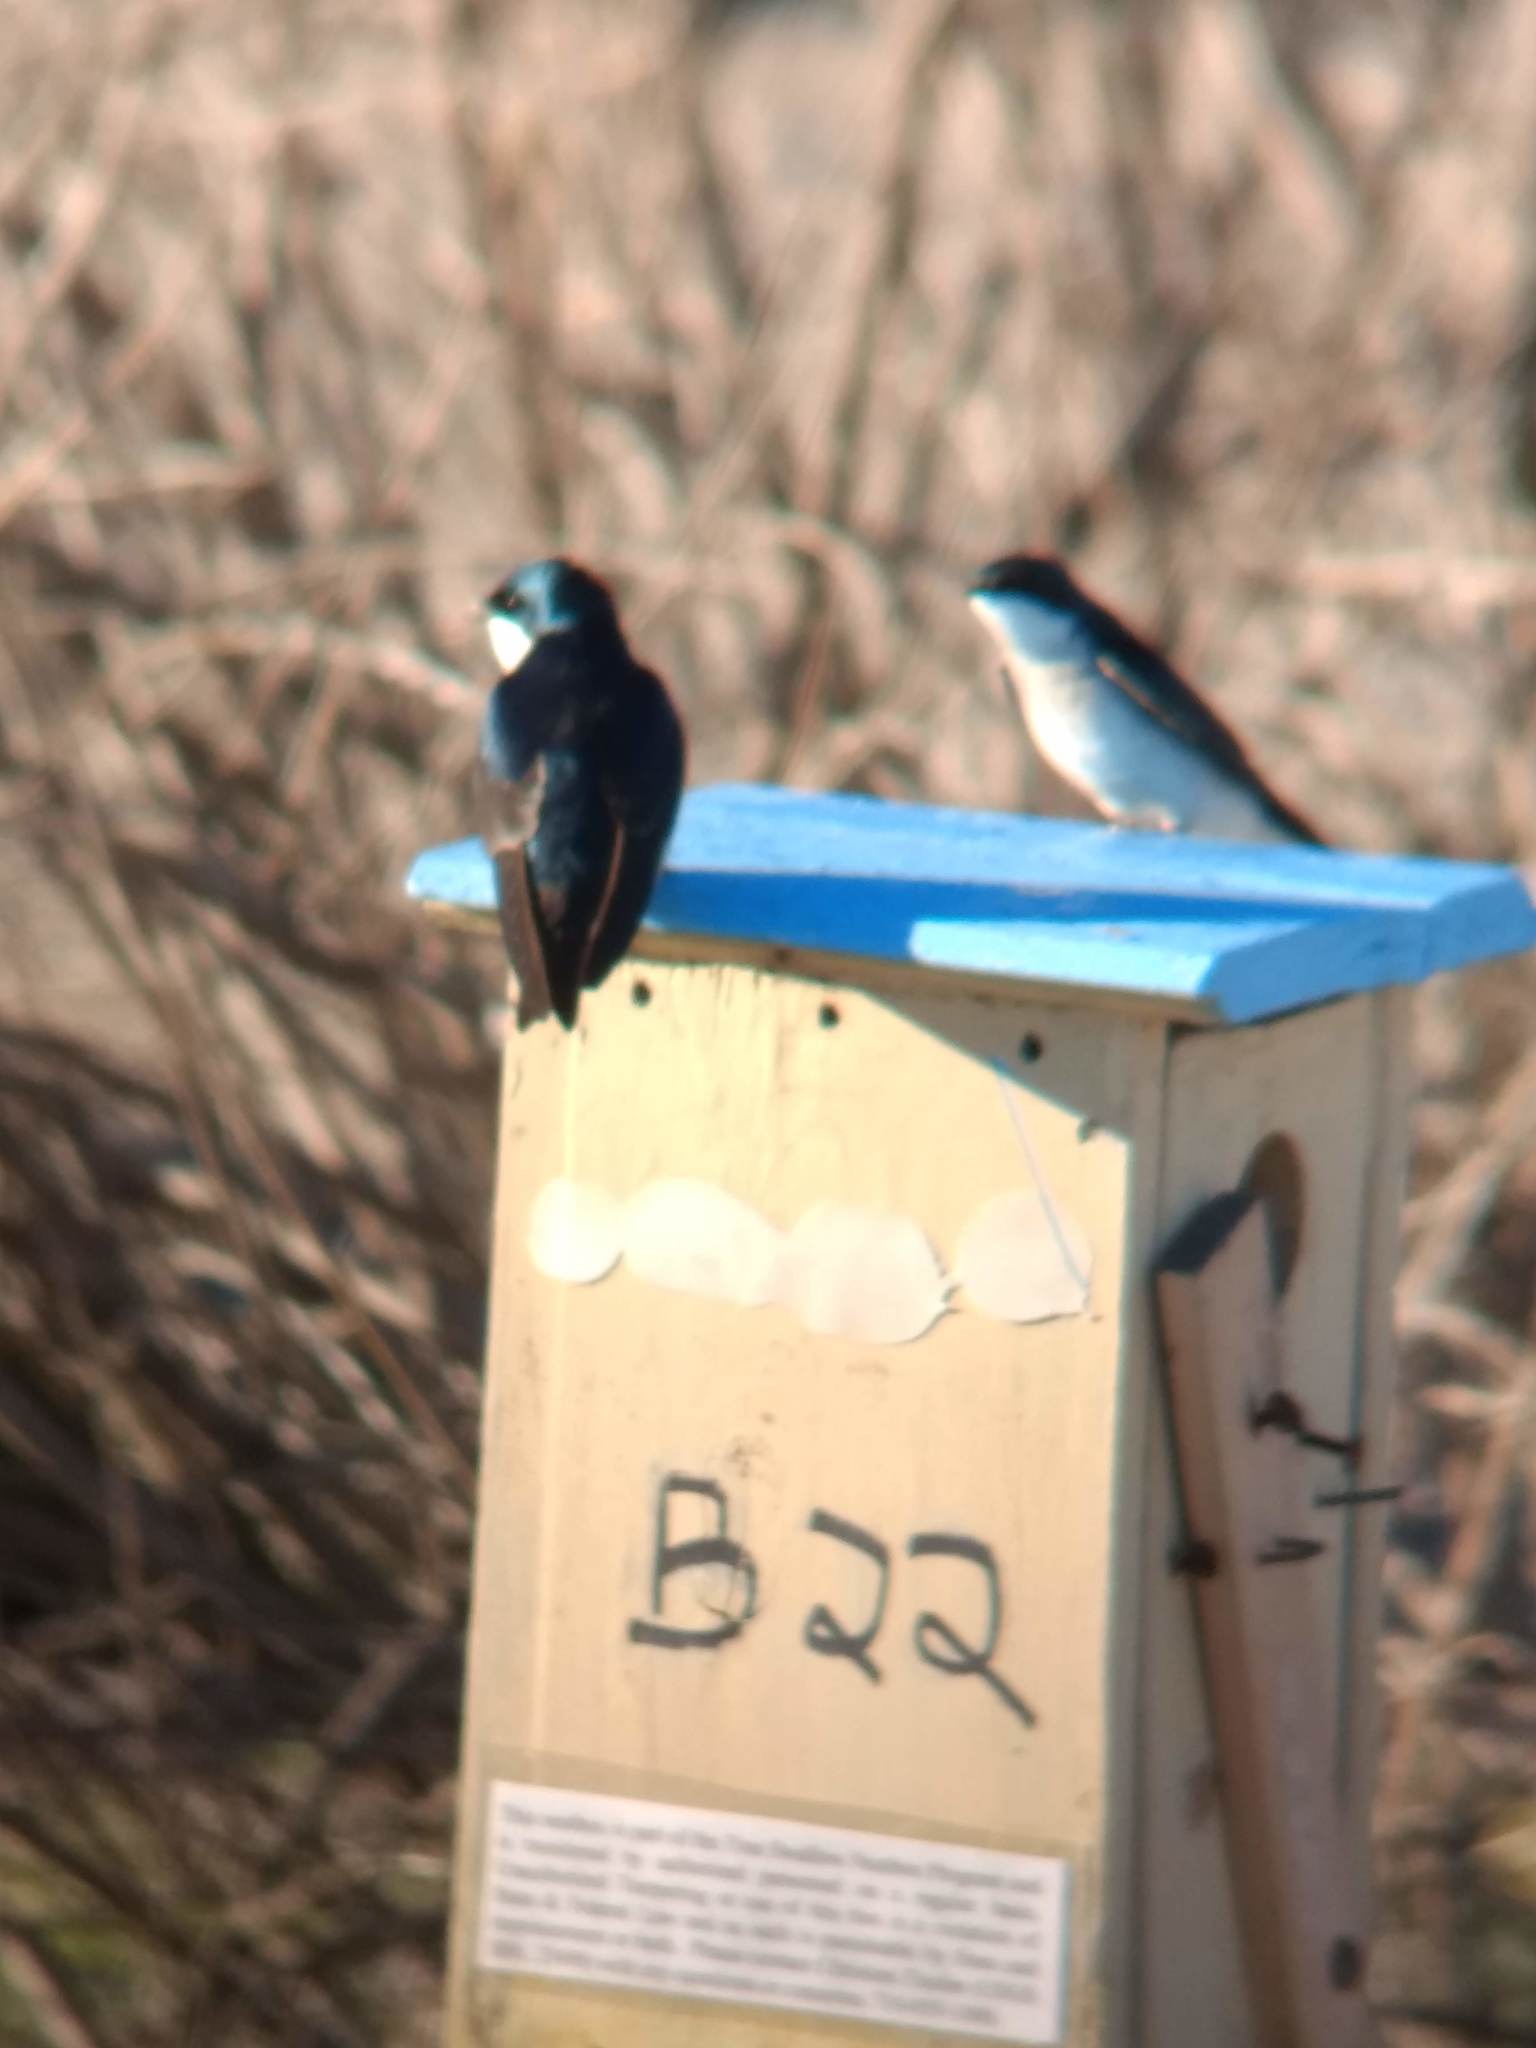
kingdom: Animalia
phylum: Chordata
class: Aves
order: Passeriformes
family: Hirundinidae
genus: Tachycineta
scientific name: Tachycineta bicolor
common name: Tree swallow
